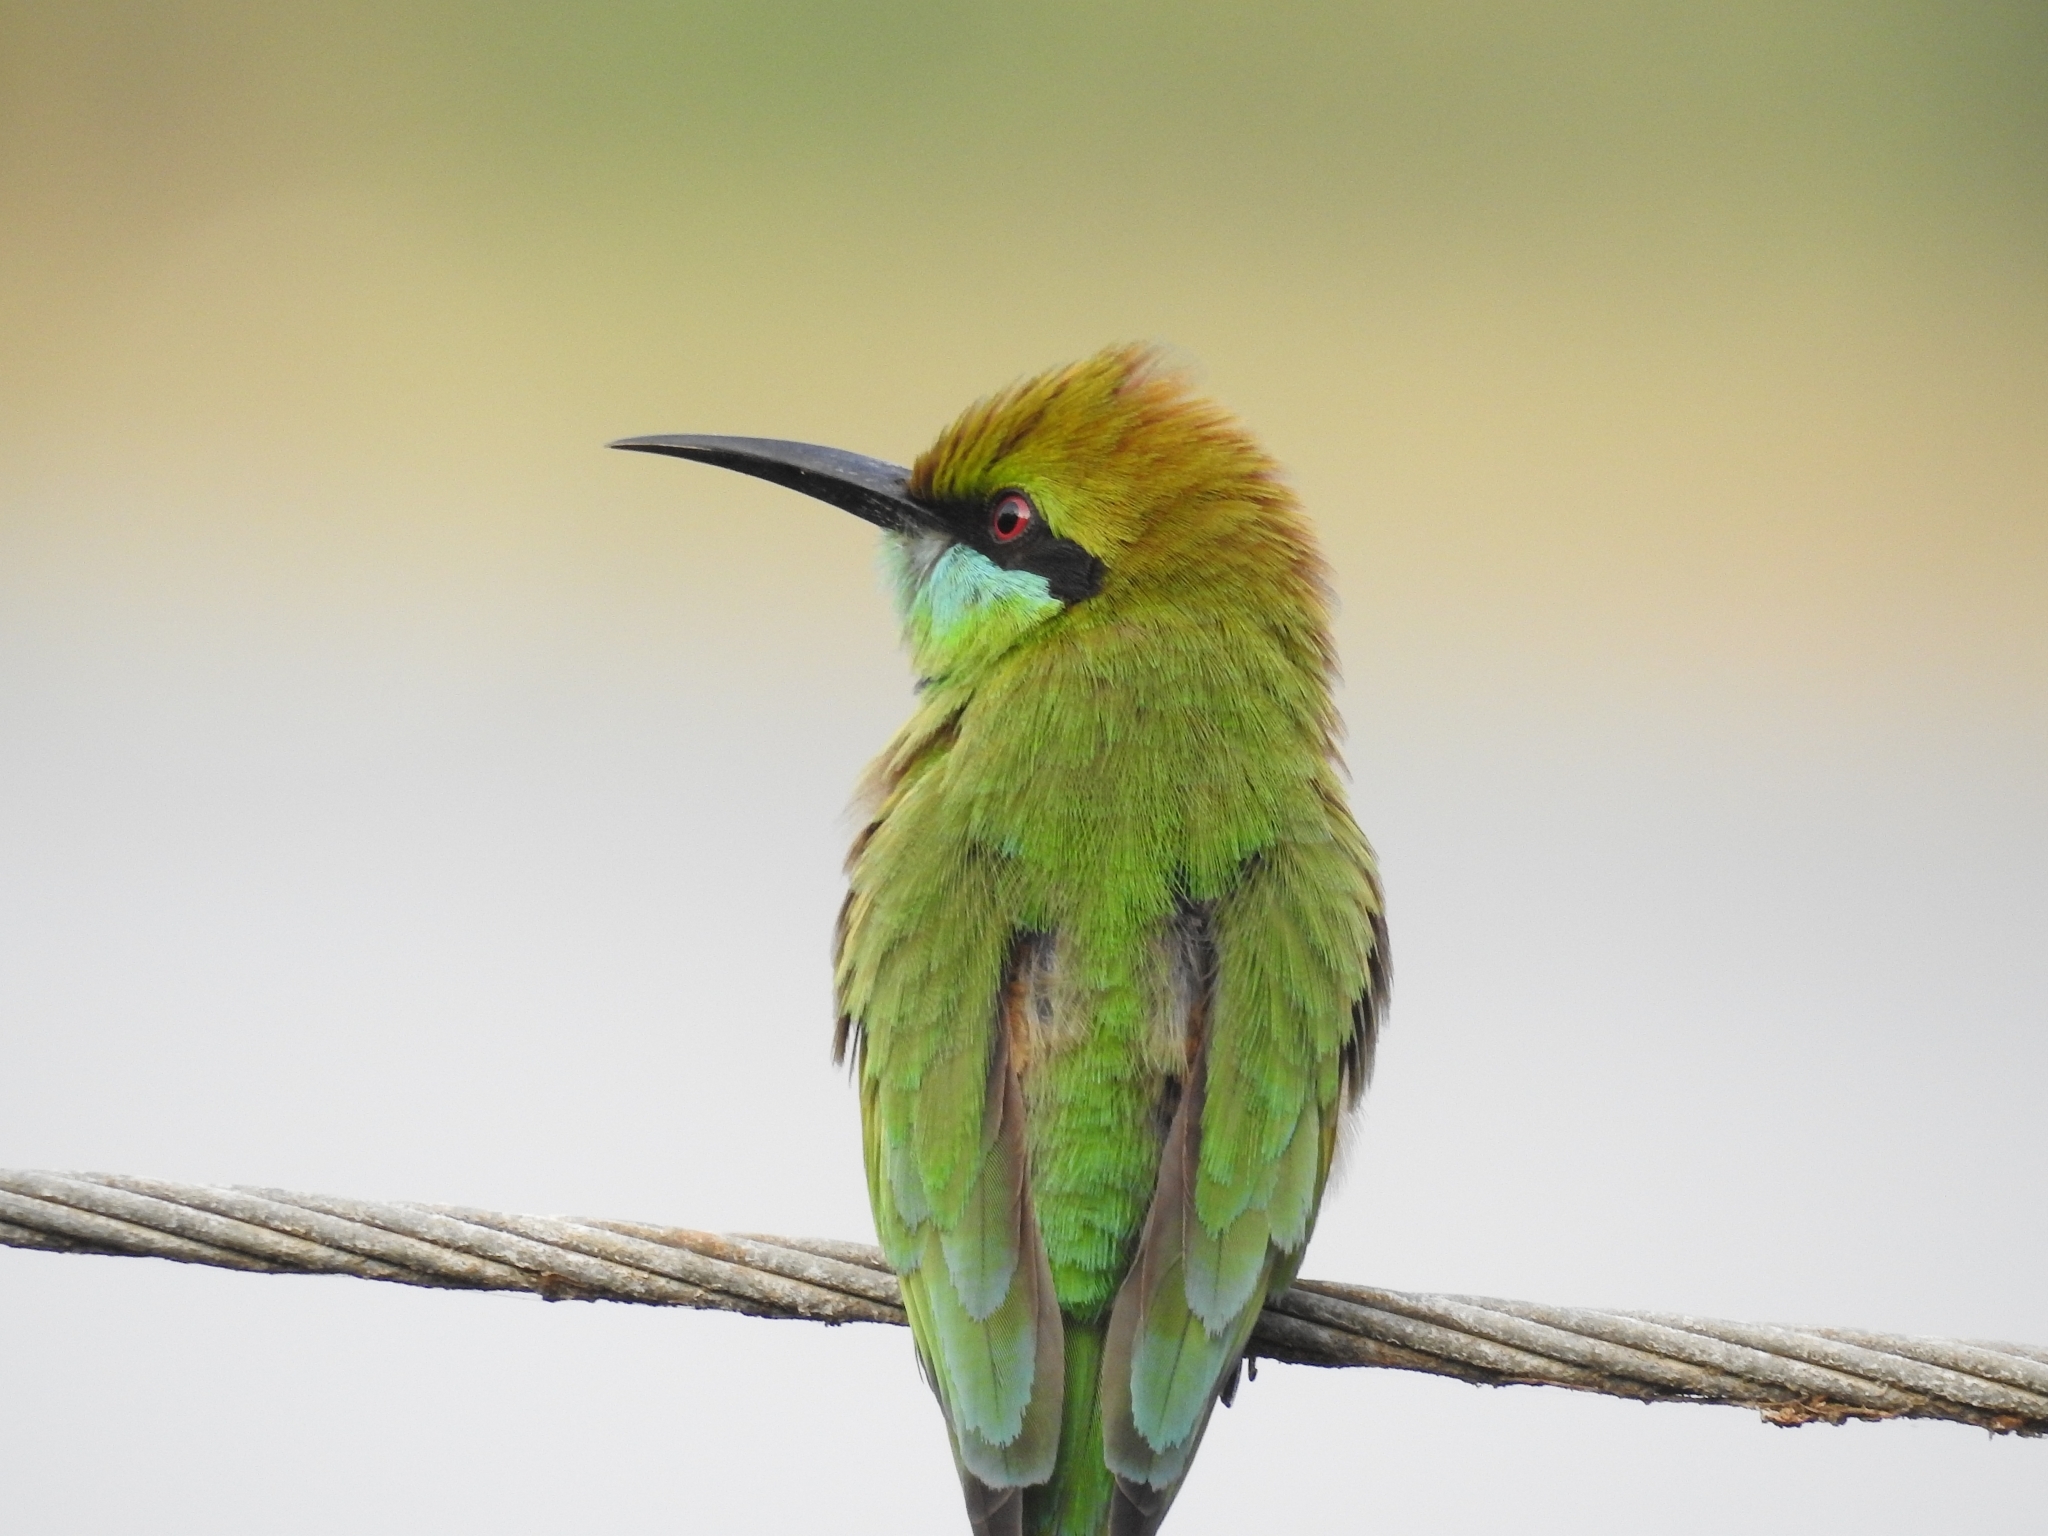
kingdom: Animalia
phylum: Chordata
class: Aves
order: Coraciiformes
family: Meropidae
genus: Merops
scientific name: Merops orientalis
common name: Green bee-eater
